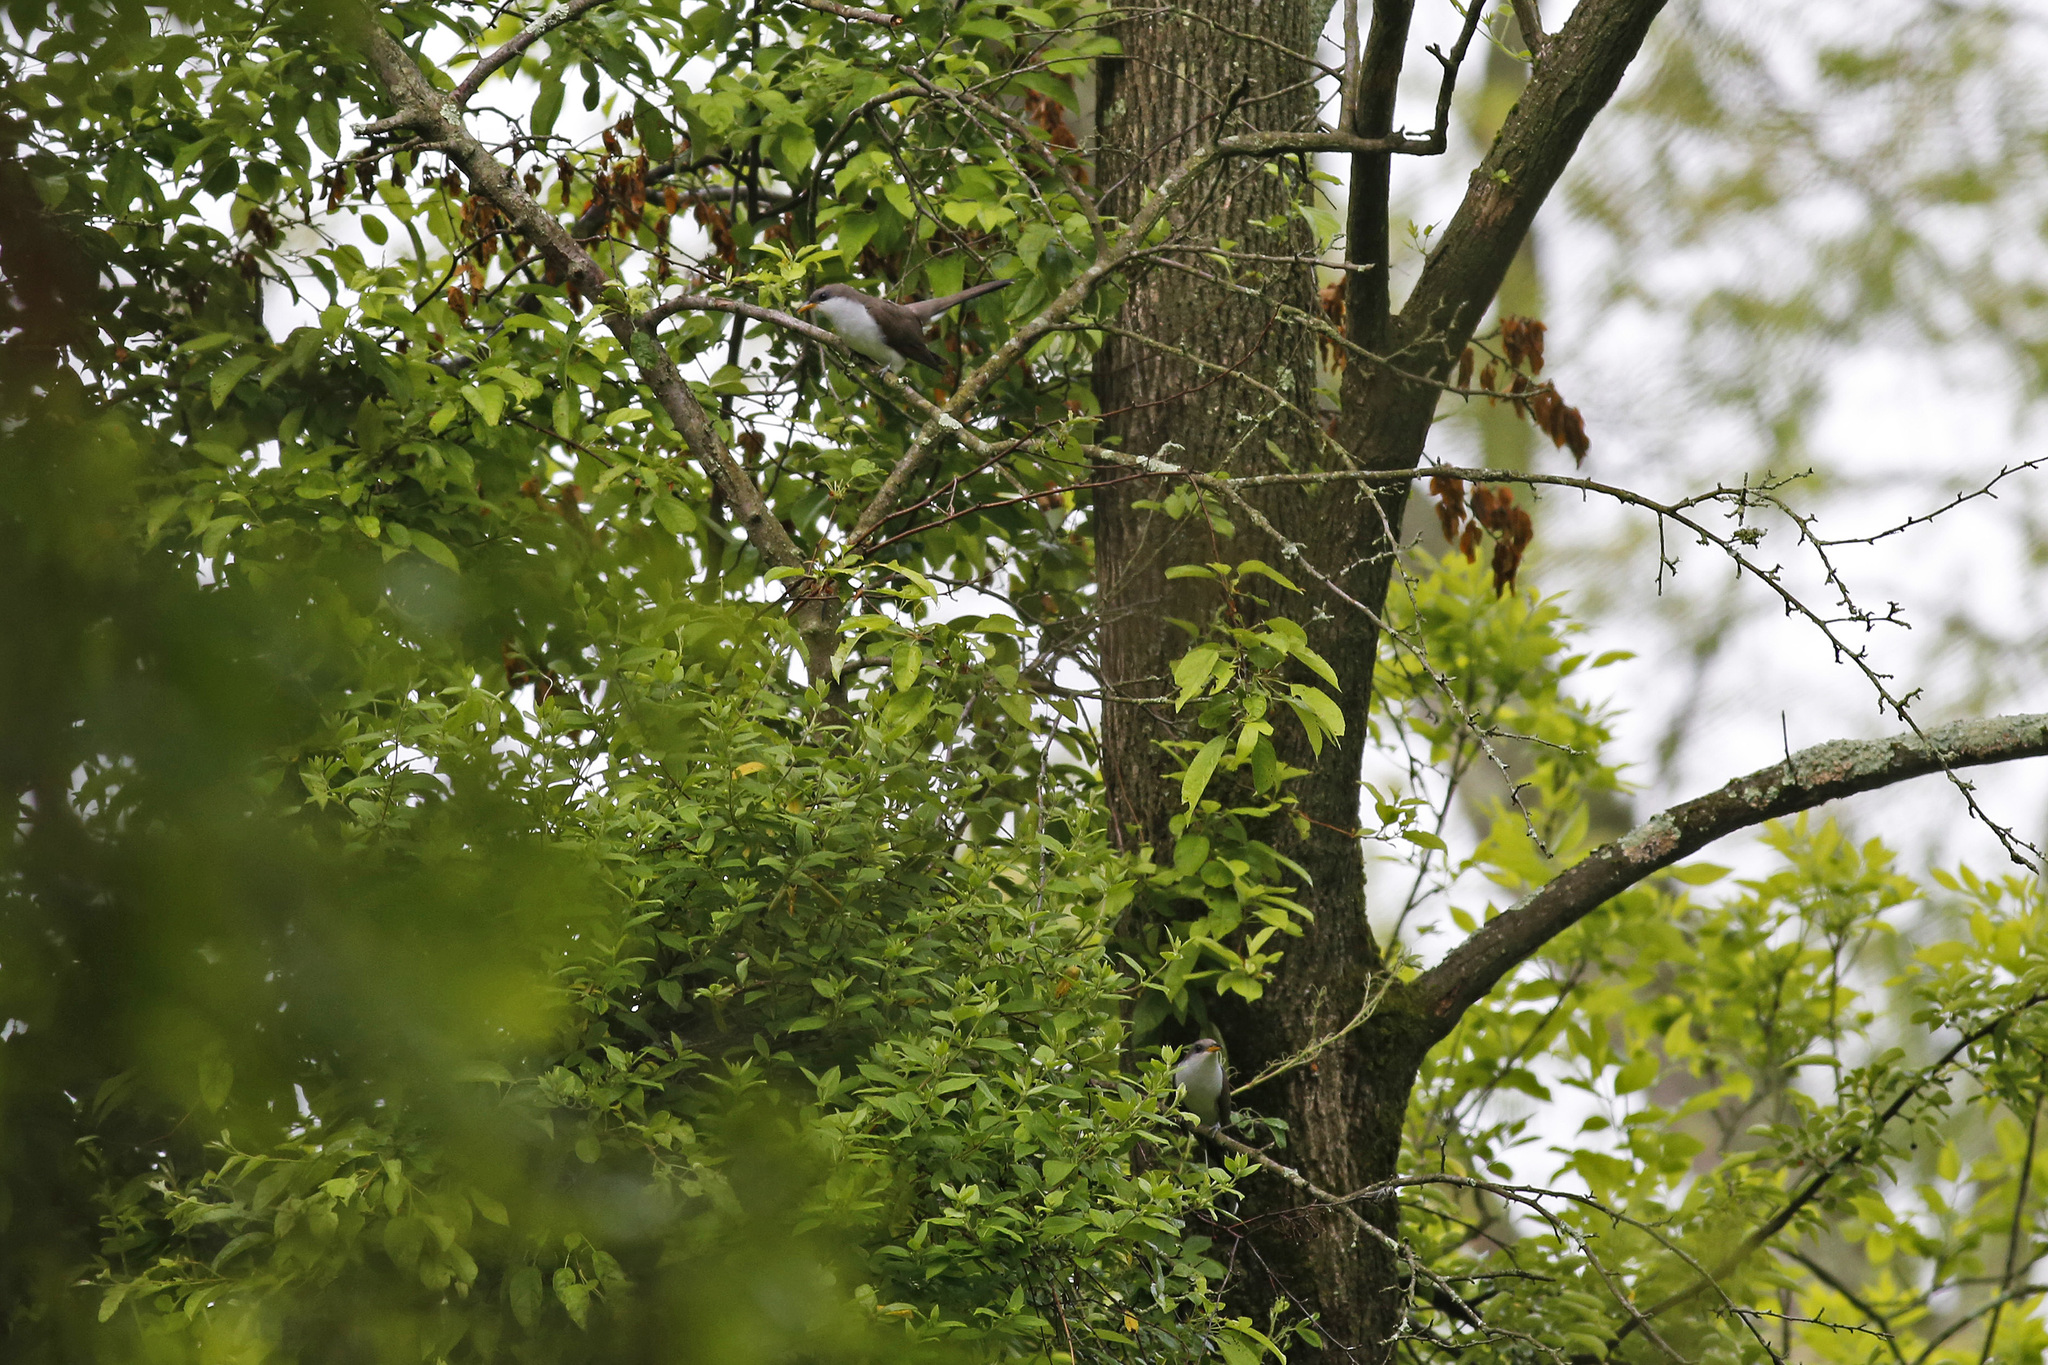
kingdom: Animalia
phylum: Chordata
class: Aves
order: Cuculiformes
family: Cuculidae
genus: Coccyzus
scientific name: Coccyzus americanus
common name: Yellow-billed cuckoo
